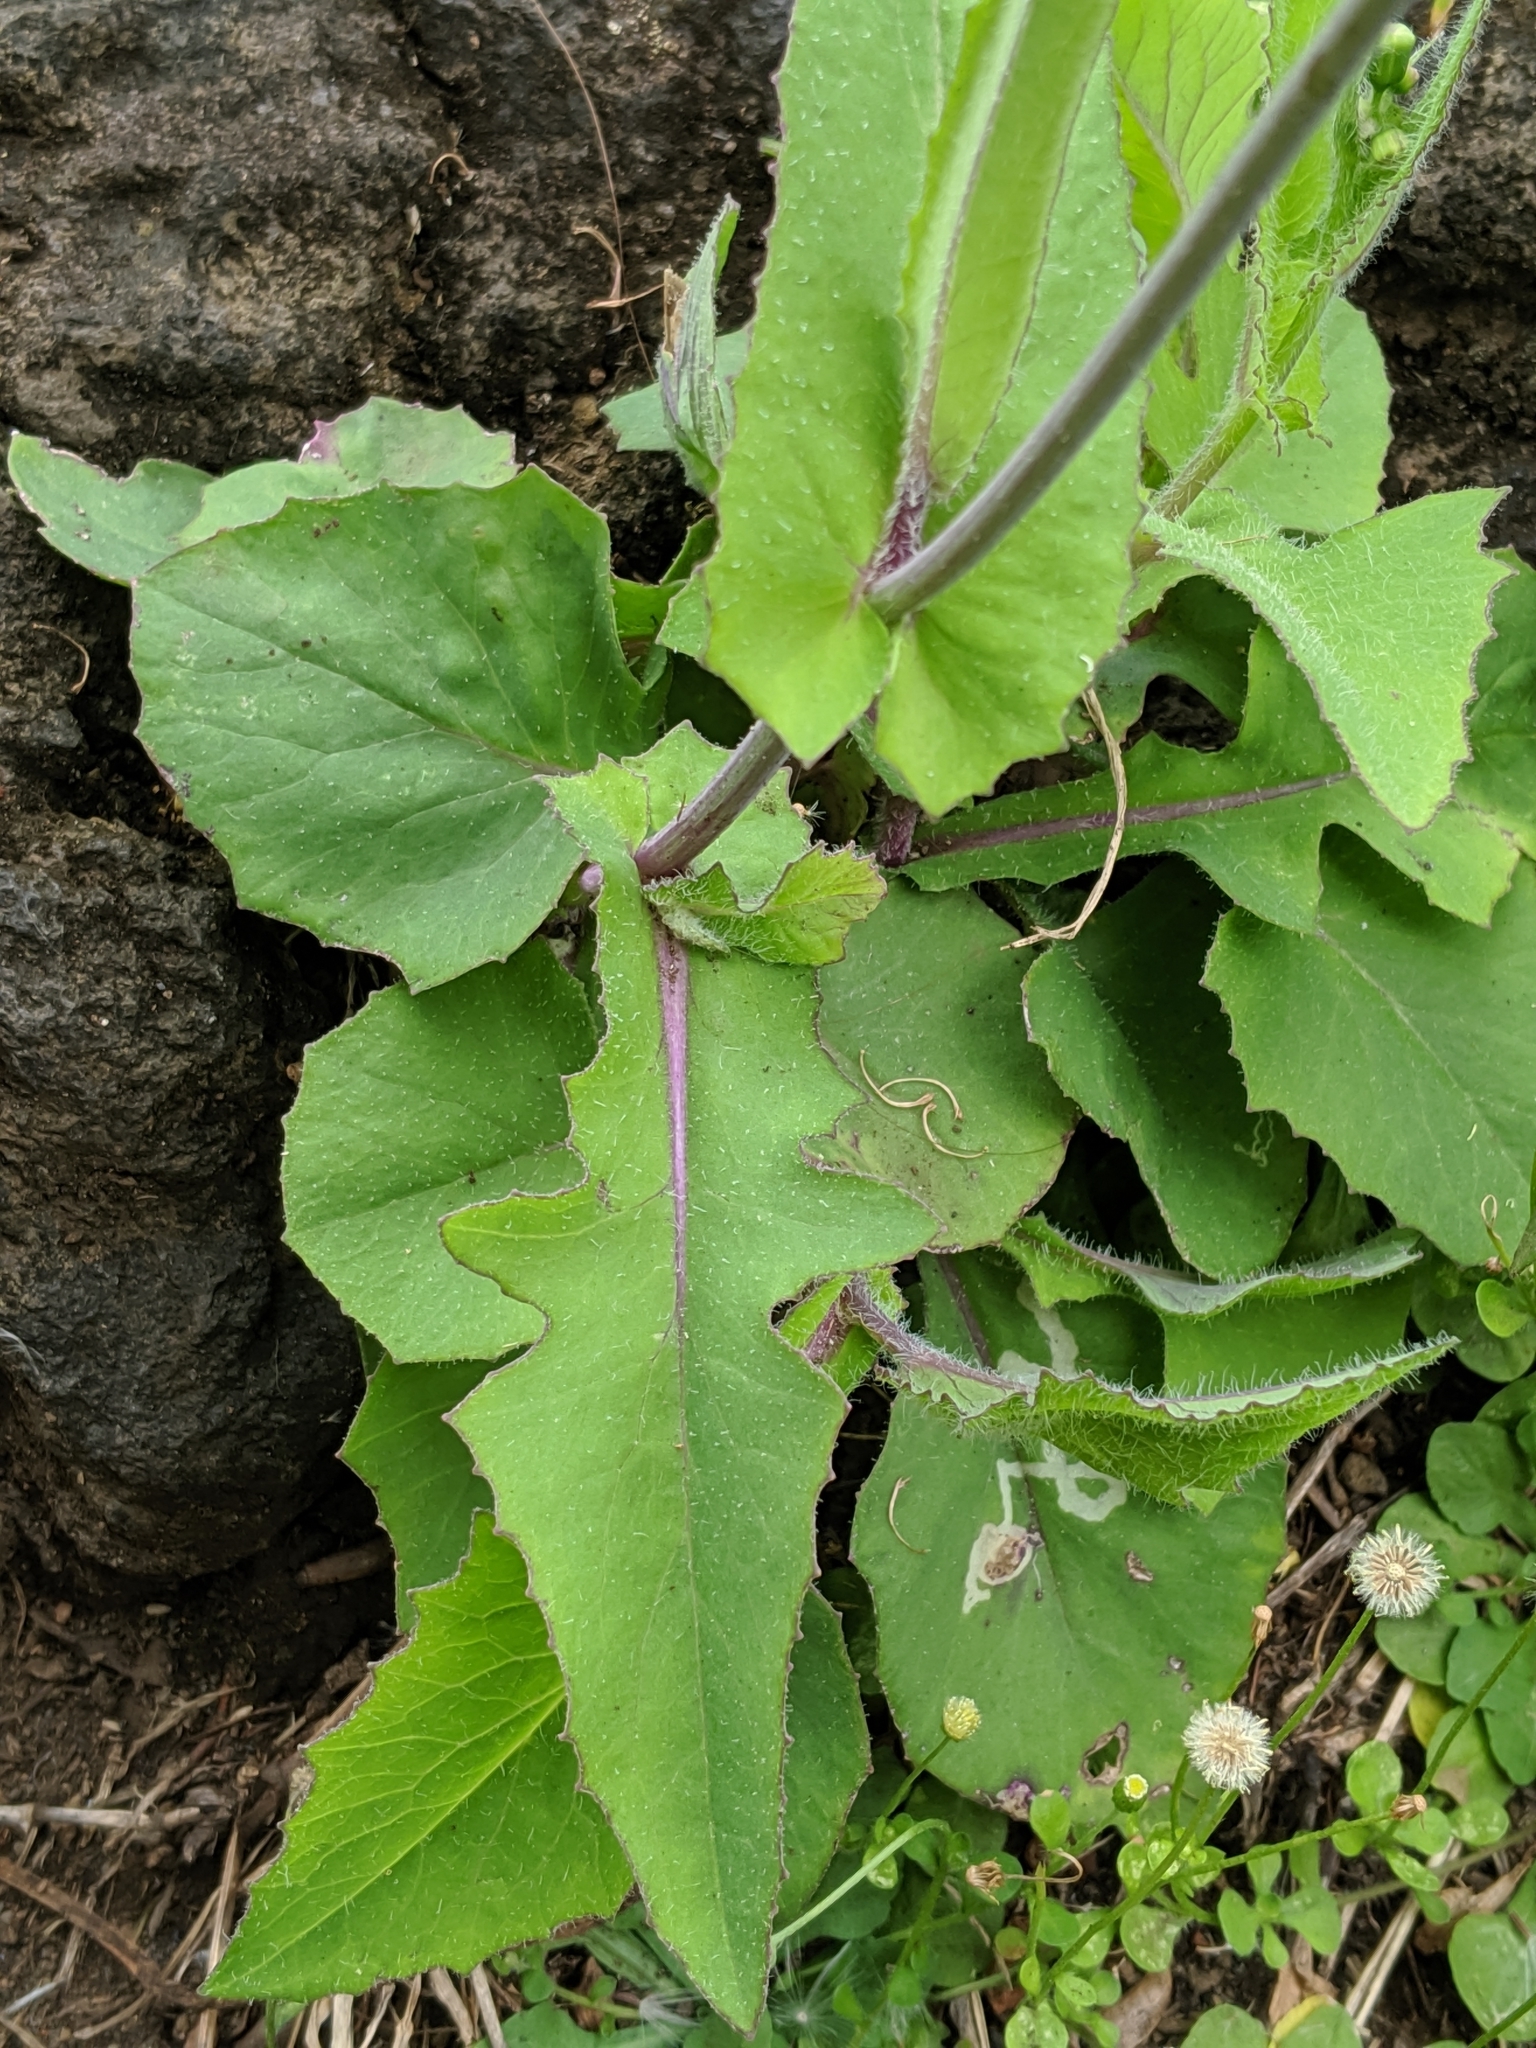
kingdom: Plantae
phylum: Tracheophyta
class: Magnoliopsida
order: Asterales
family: Asteraceae
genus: Emilia
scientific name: Emilia sonchifolia
